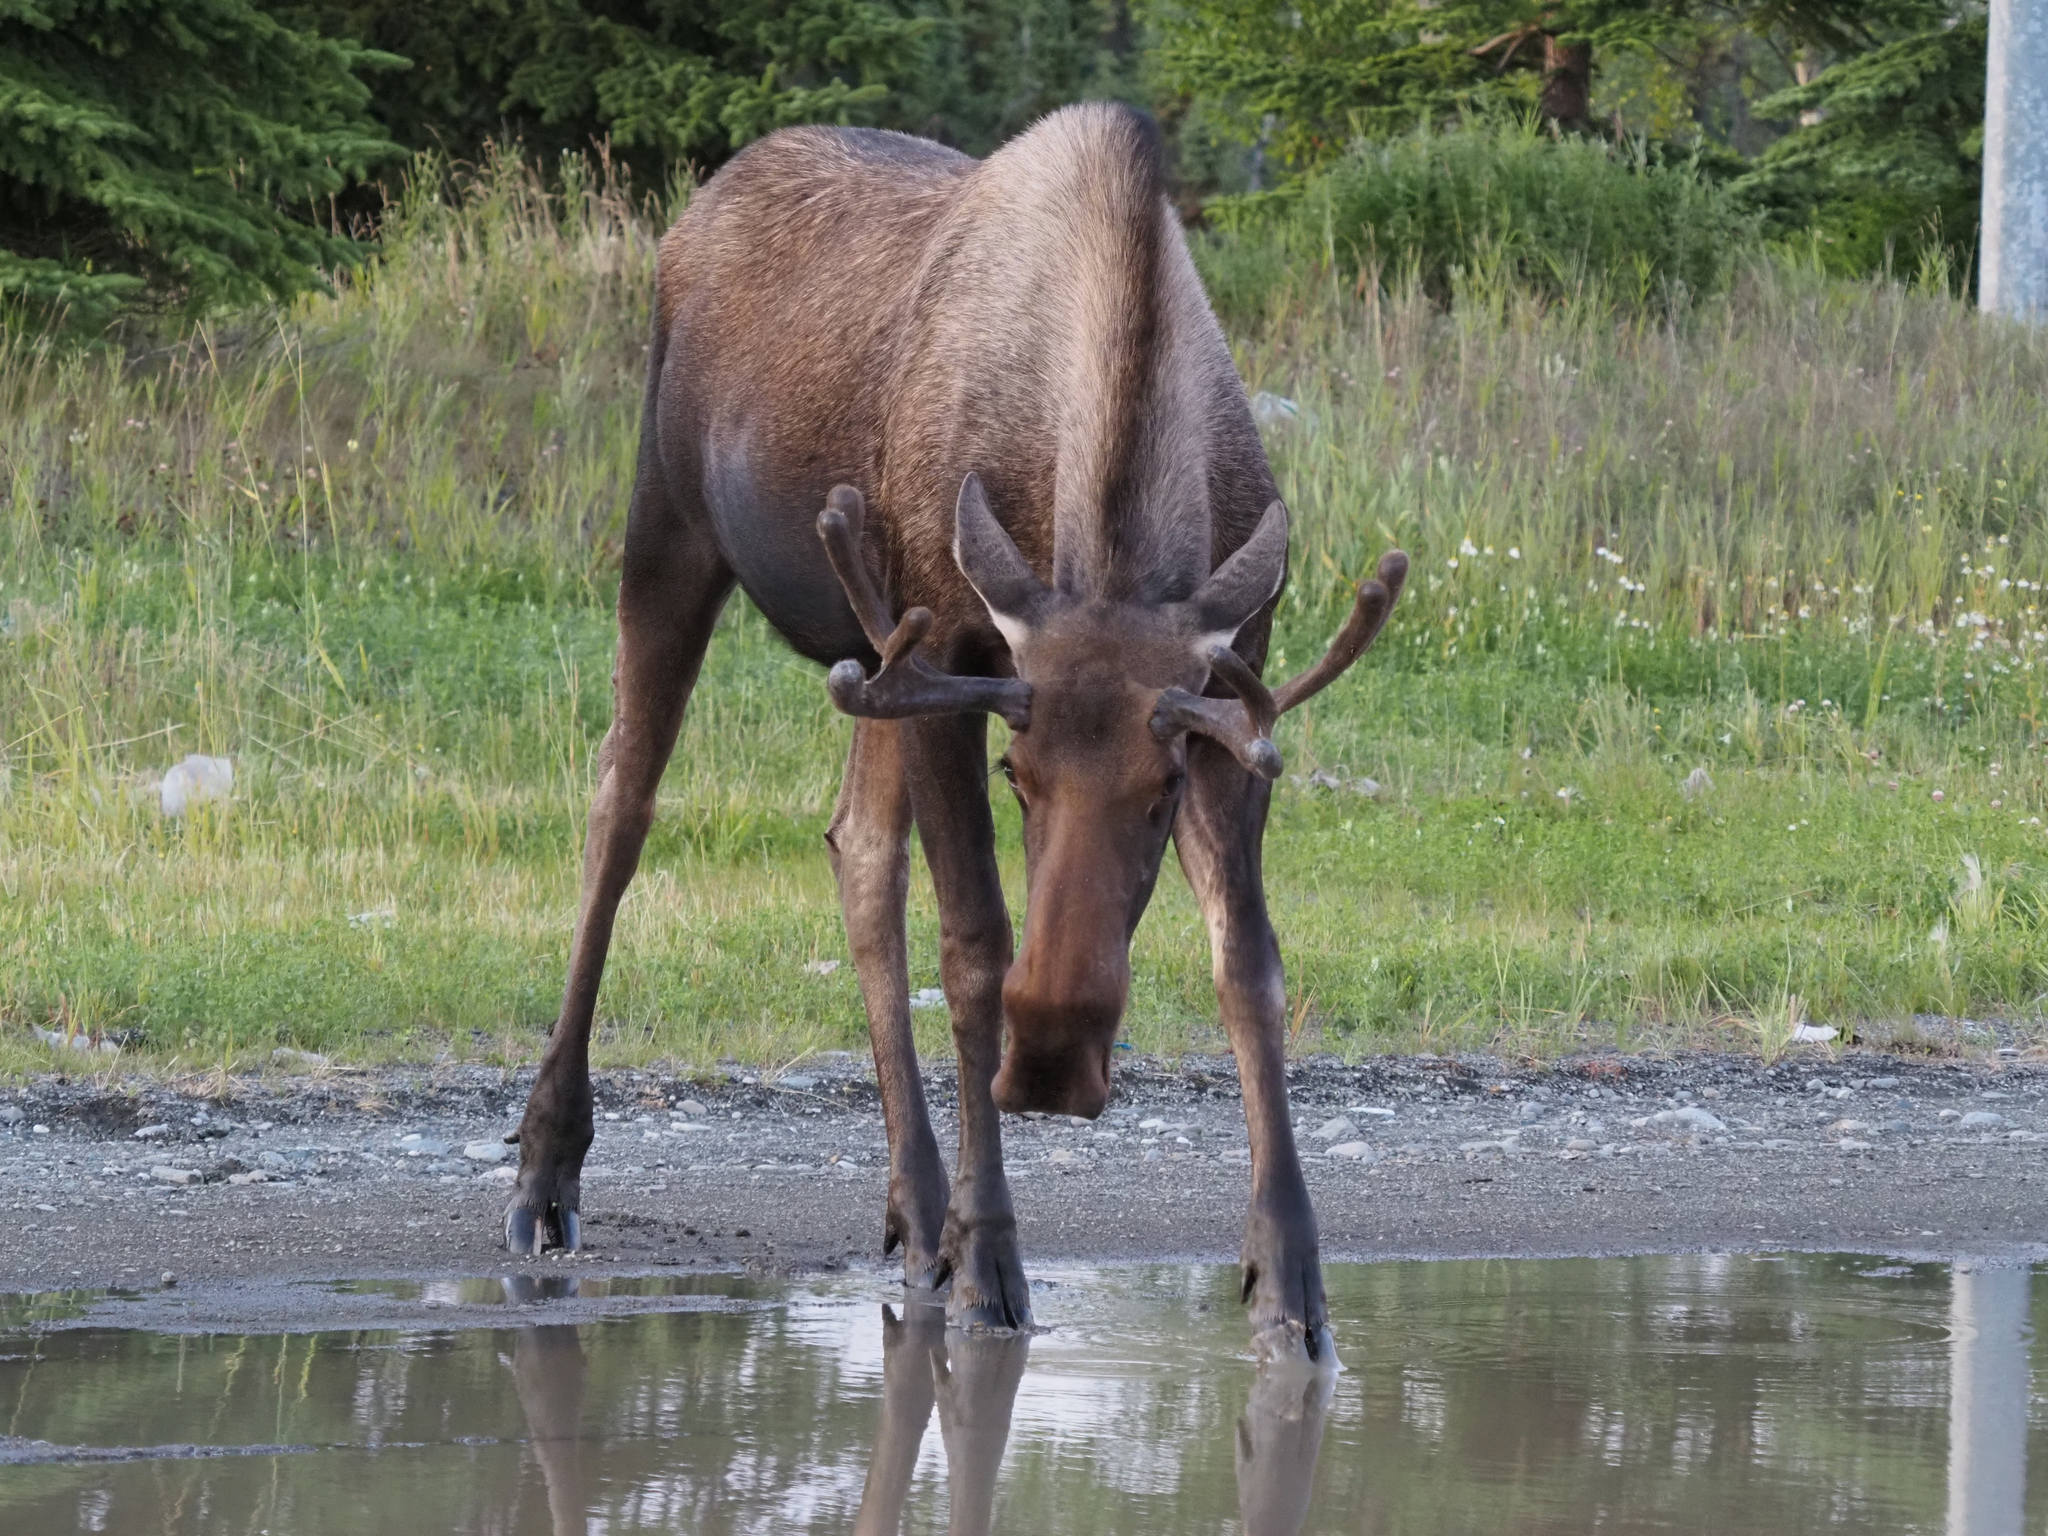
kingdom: Animalia
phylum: Chordata
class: Mammalia
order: Artiodactyla
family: Cervidae
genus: Alces
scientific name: Alces alces
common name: Moose
